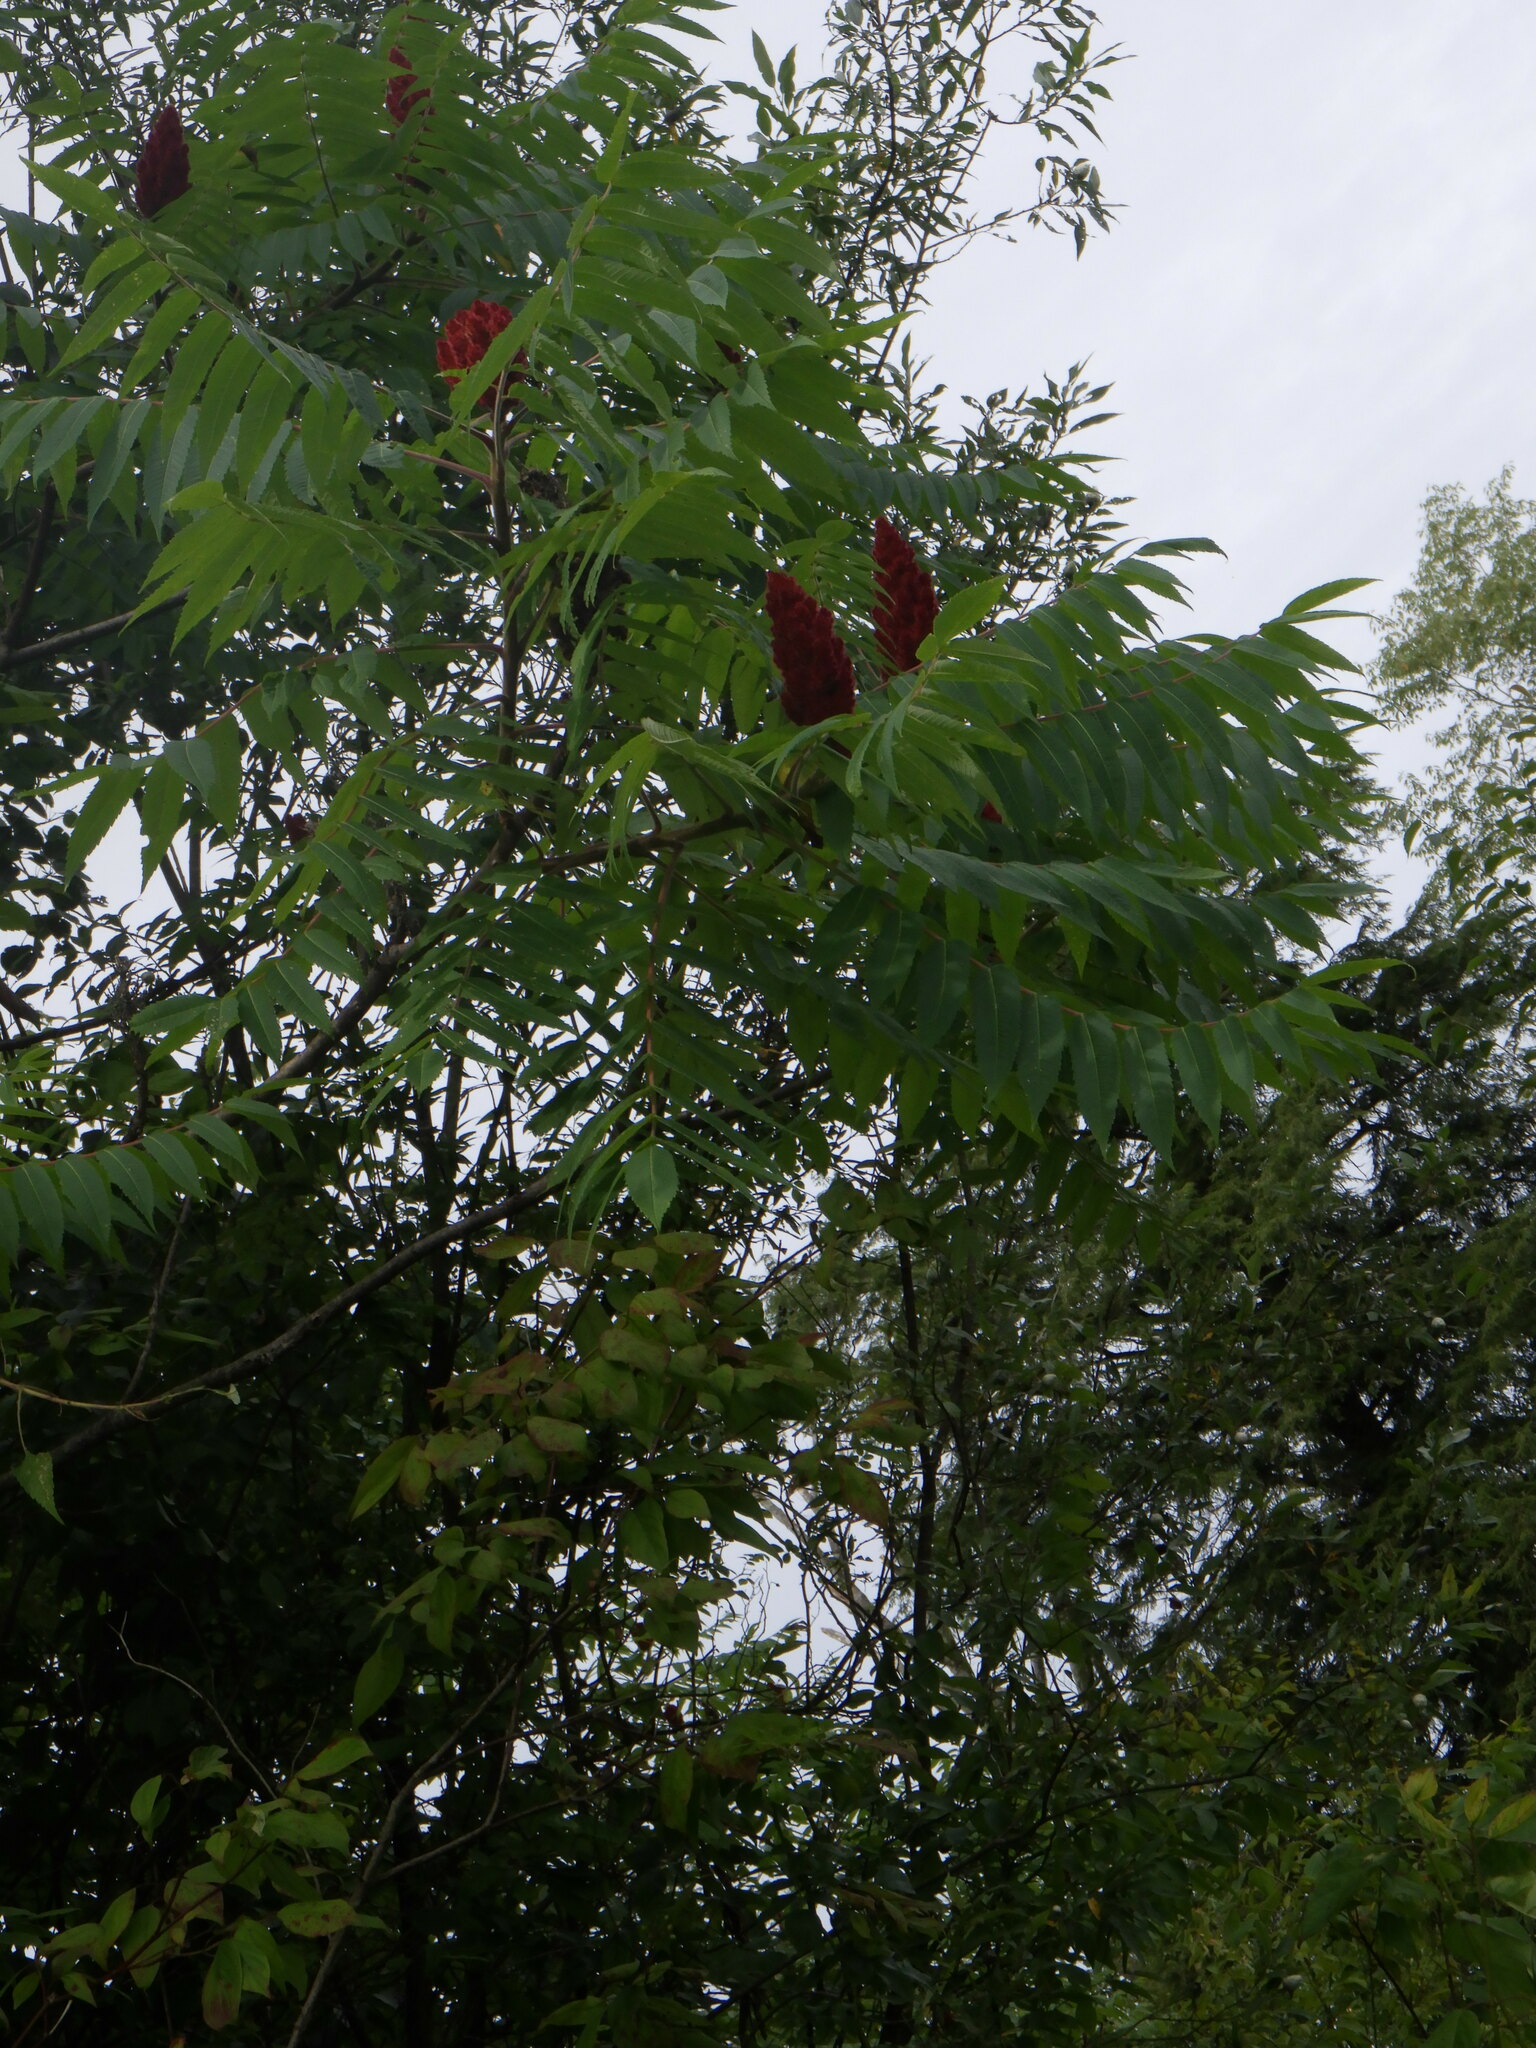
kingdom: Plantae
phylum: Tracheophyta
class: Magnoliopsida
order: Sapindales
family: Anacardiaceae
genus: Rhus
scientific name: Rhus typhina
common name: Staghorn sumac
